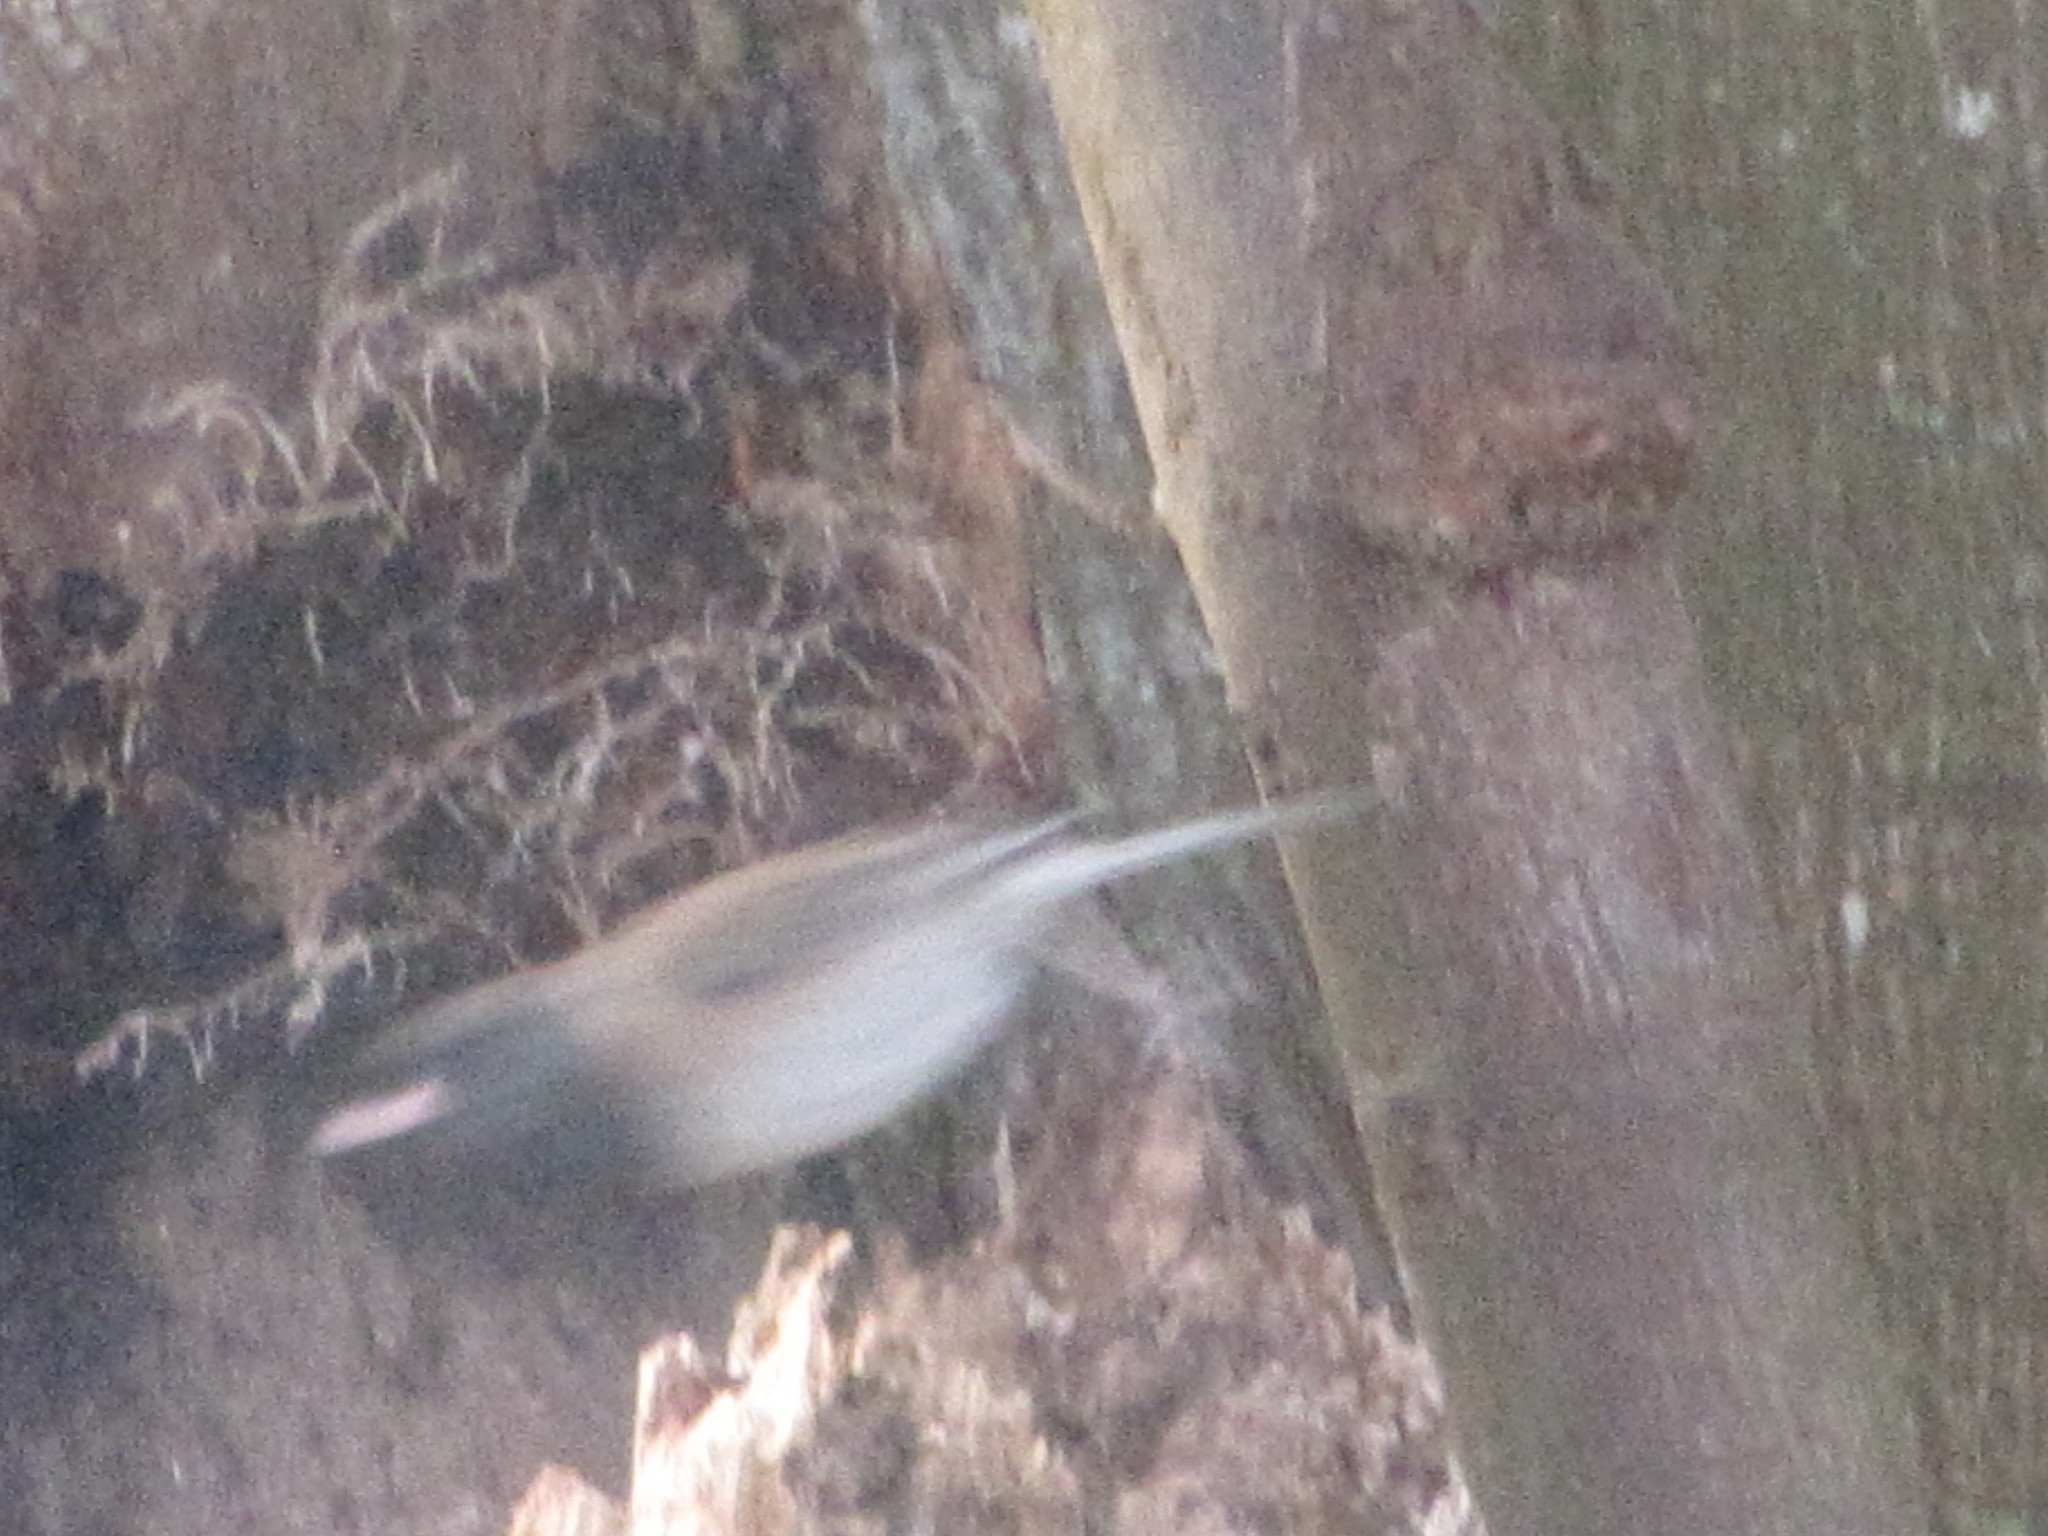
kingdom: Animalia
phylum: Chordata
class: Aves
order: Passeriformes
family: Passerellidae
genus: Junco
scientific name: Junco hyemalis
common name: Dark-eyed junco
